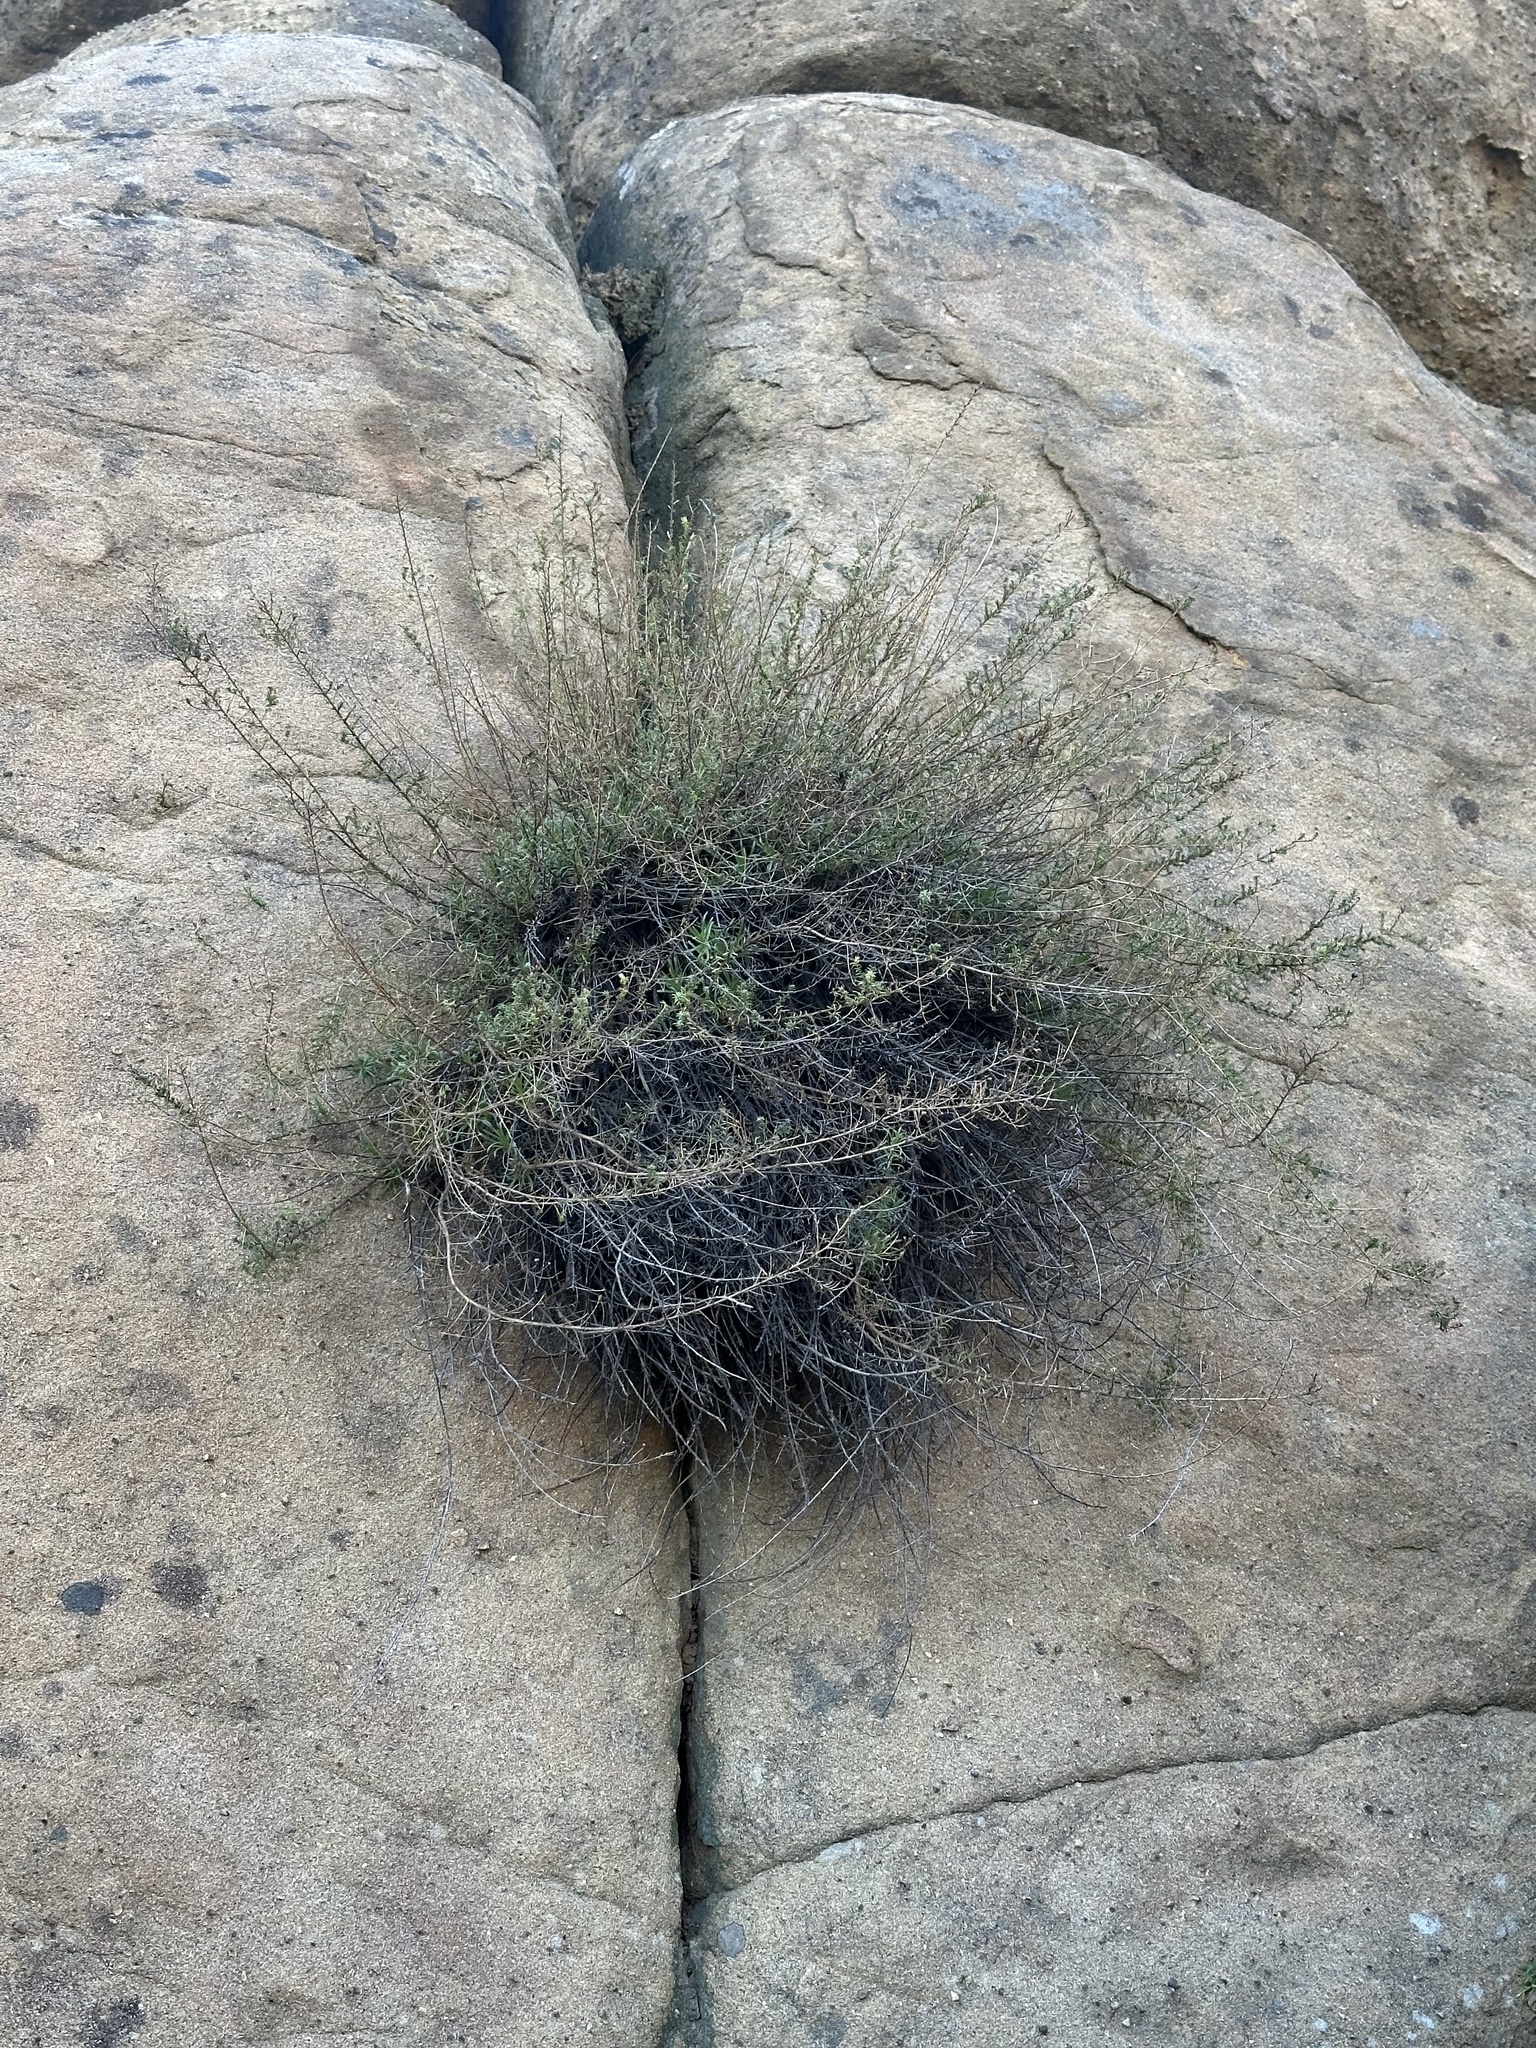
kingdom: Plantae
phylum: Tracheophyta
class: Magnoliopsida
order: Asterales
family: Asteraceae
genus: Deinandra
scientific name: Deinandra minthornii
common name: Santa susana tarplant
